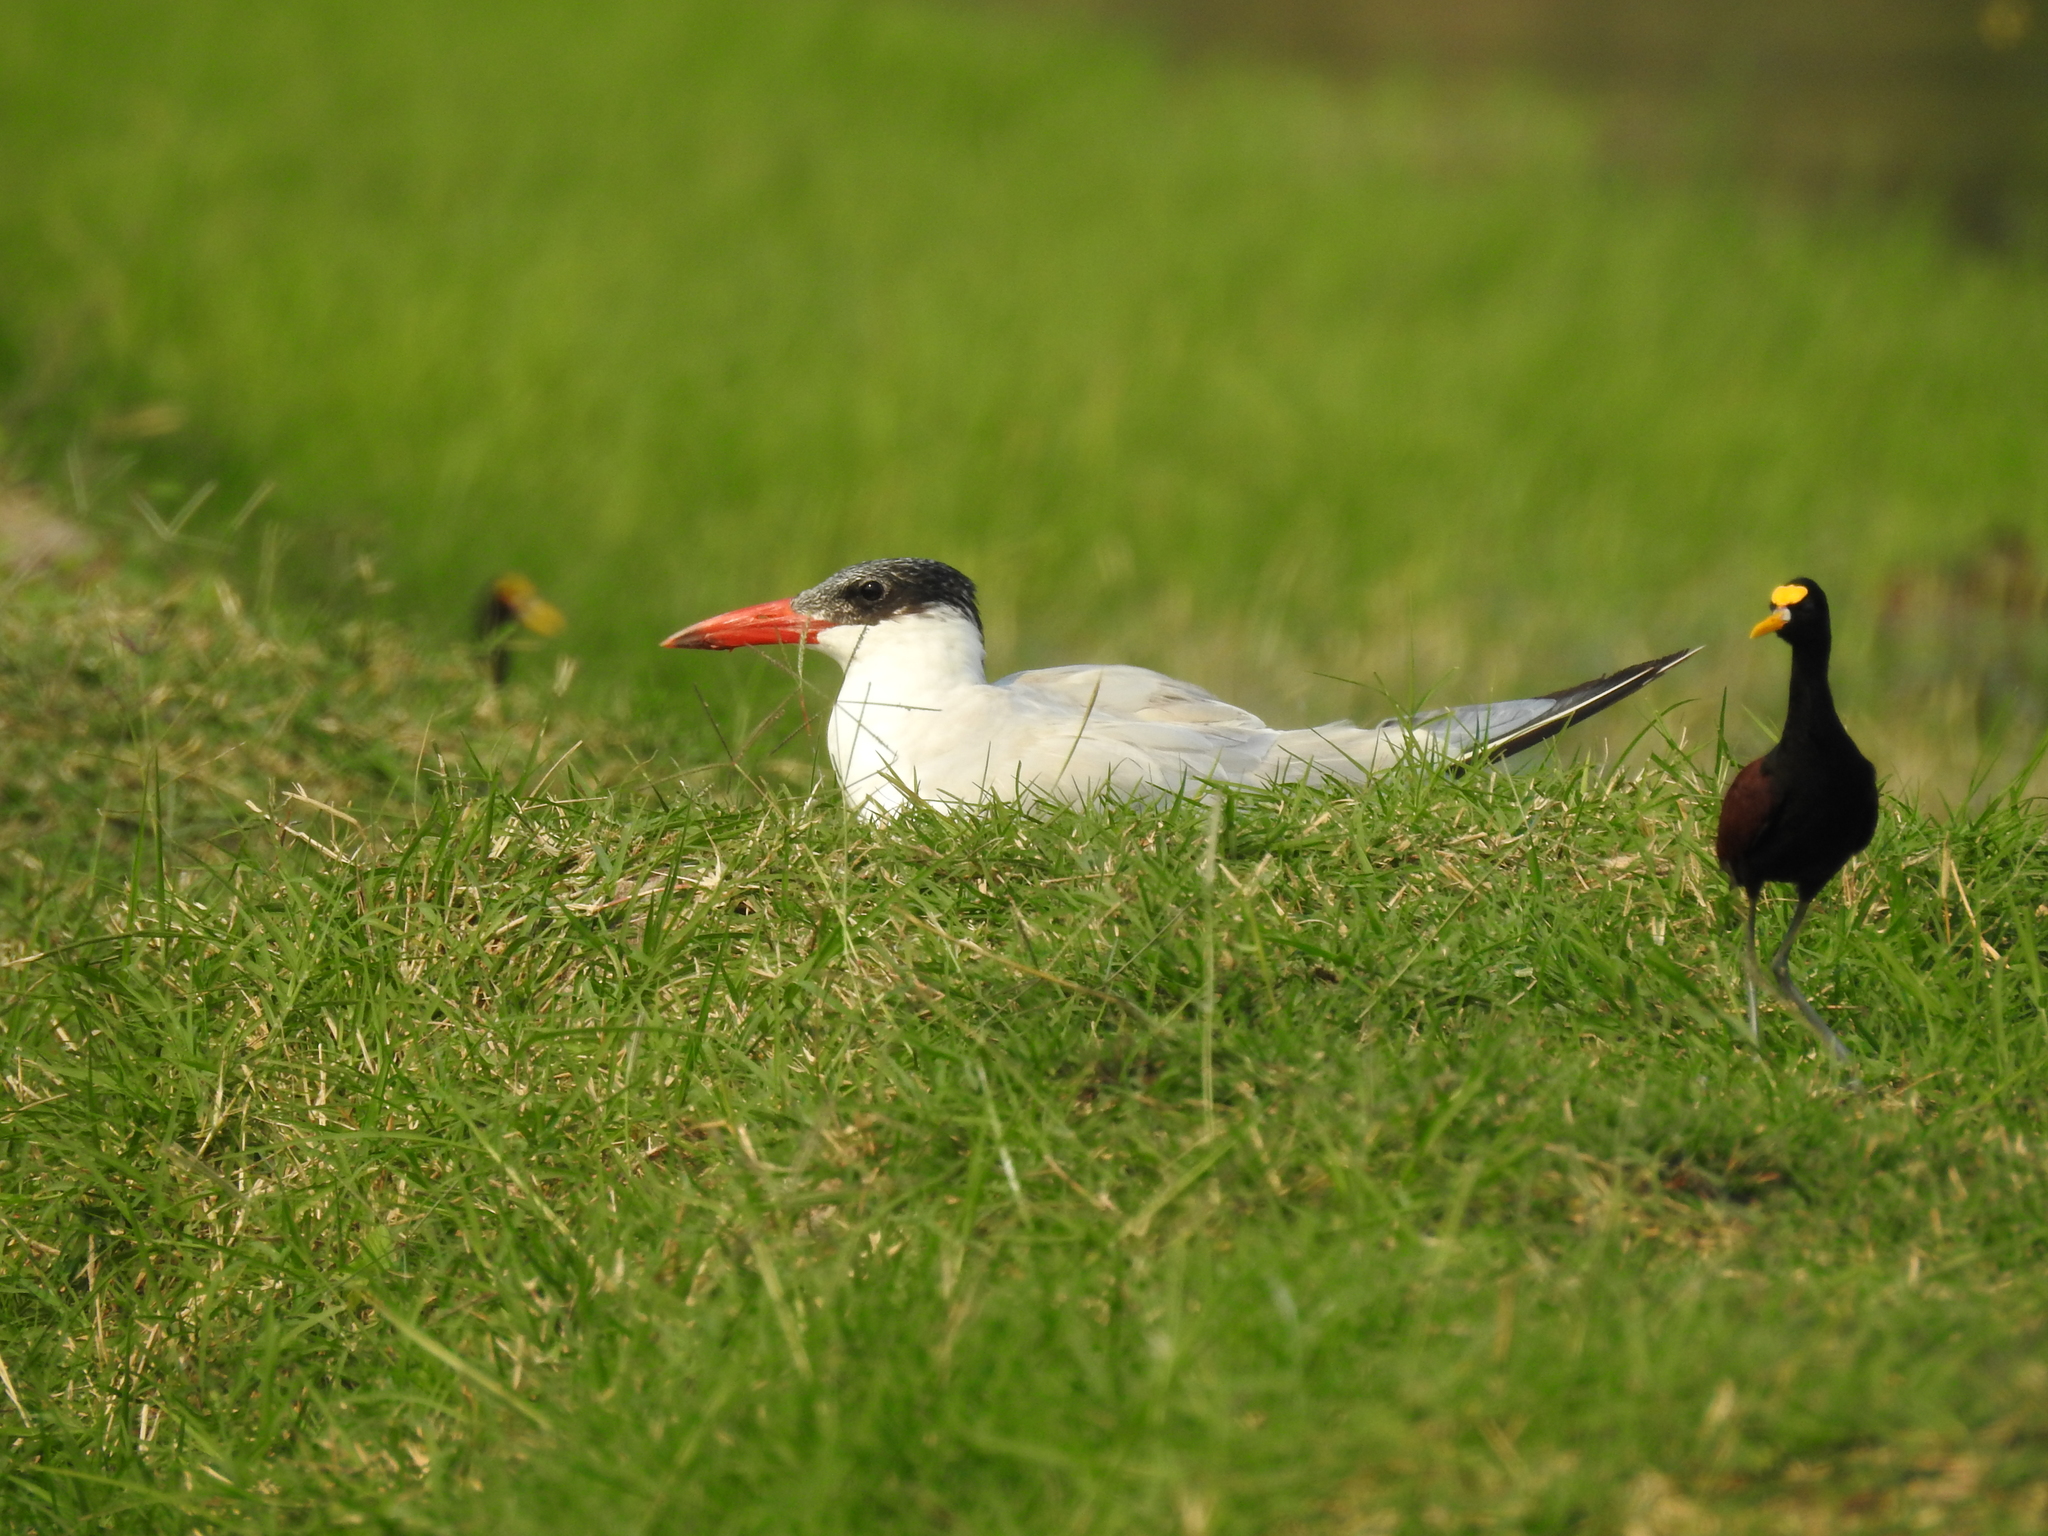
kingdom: Animalia
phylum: Chordata
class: Aves
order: Charadriiformes
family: Laridae
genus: Hydroprogne
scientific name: Hydroprogne caspia
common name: Caspian tern
